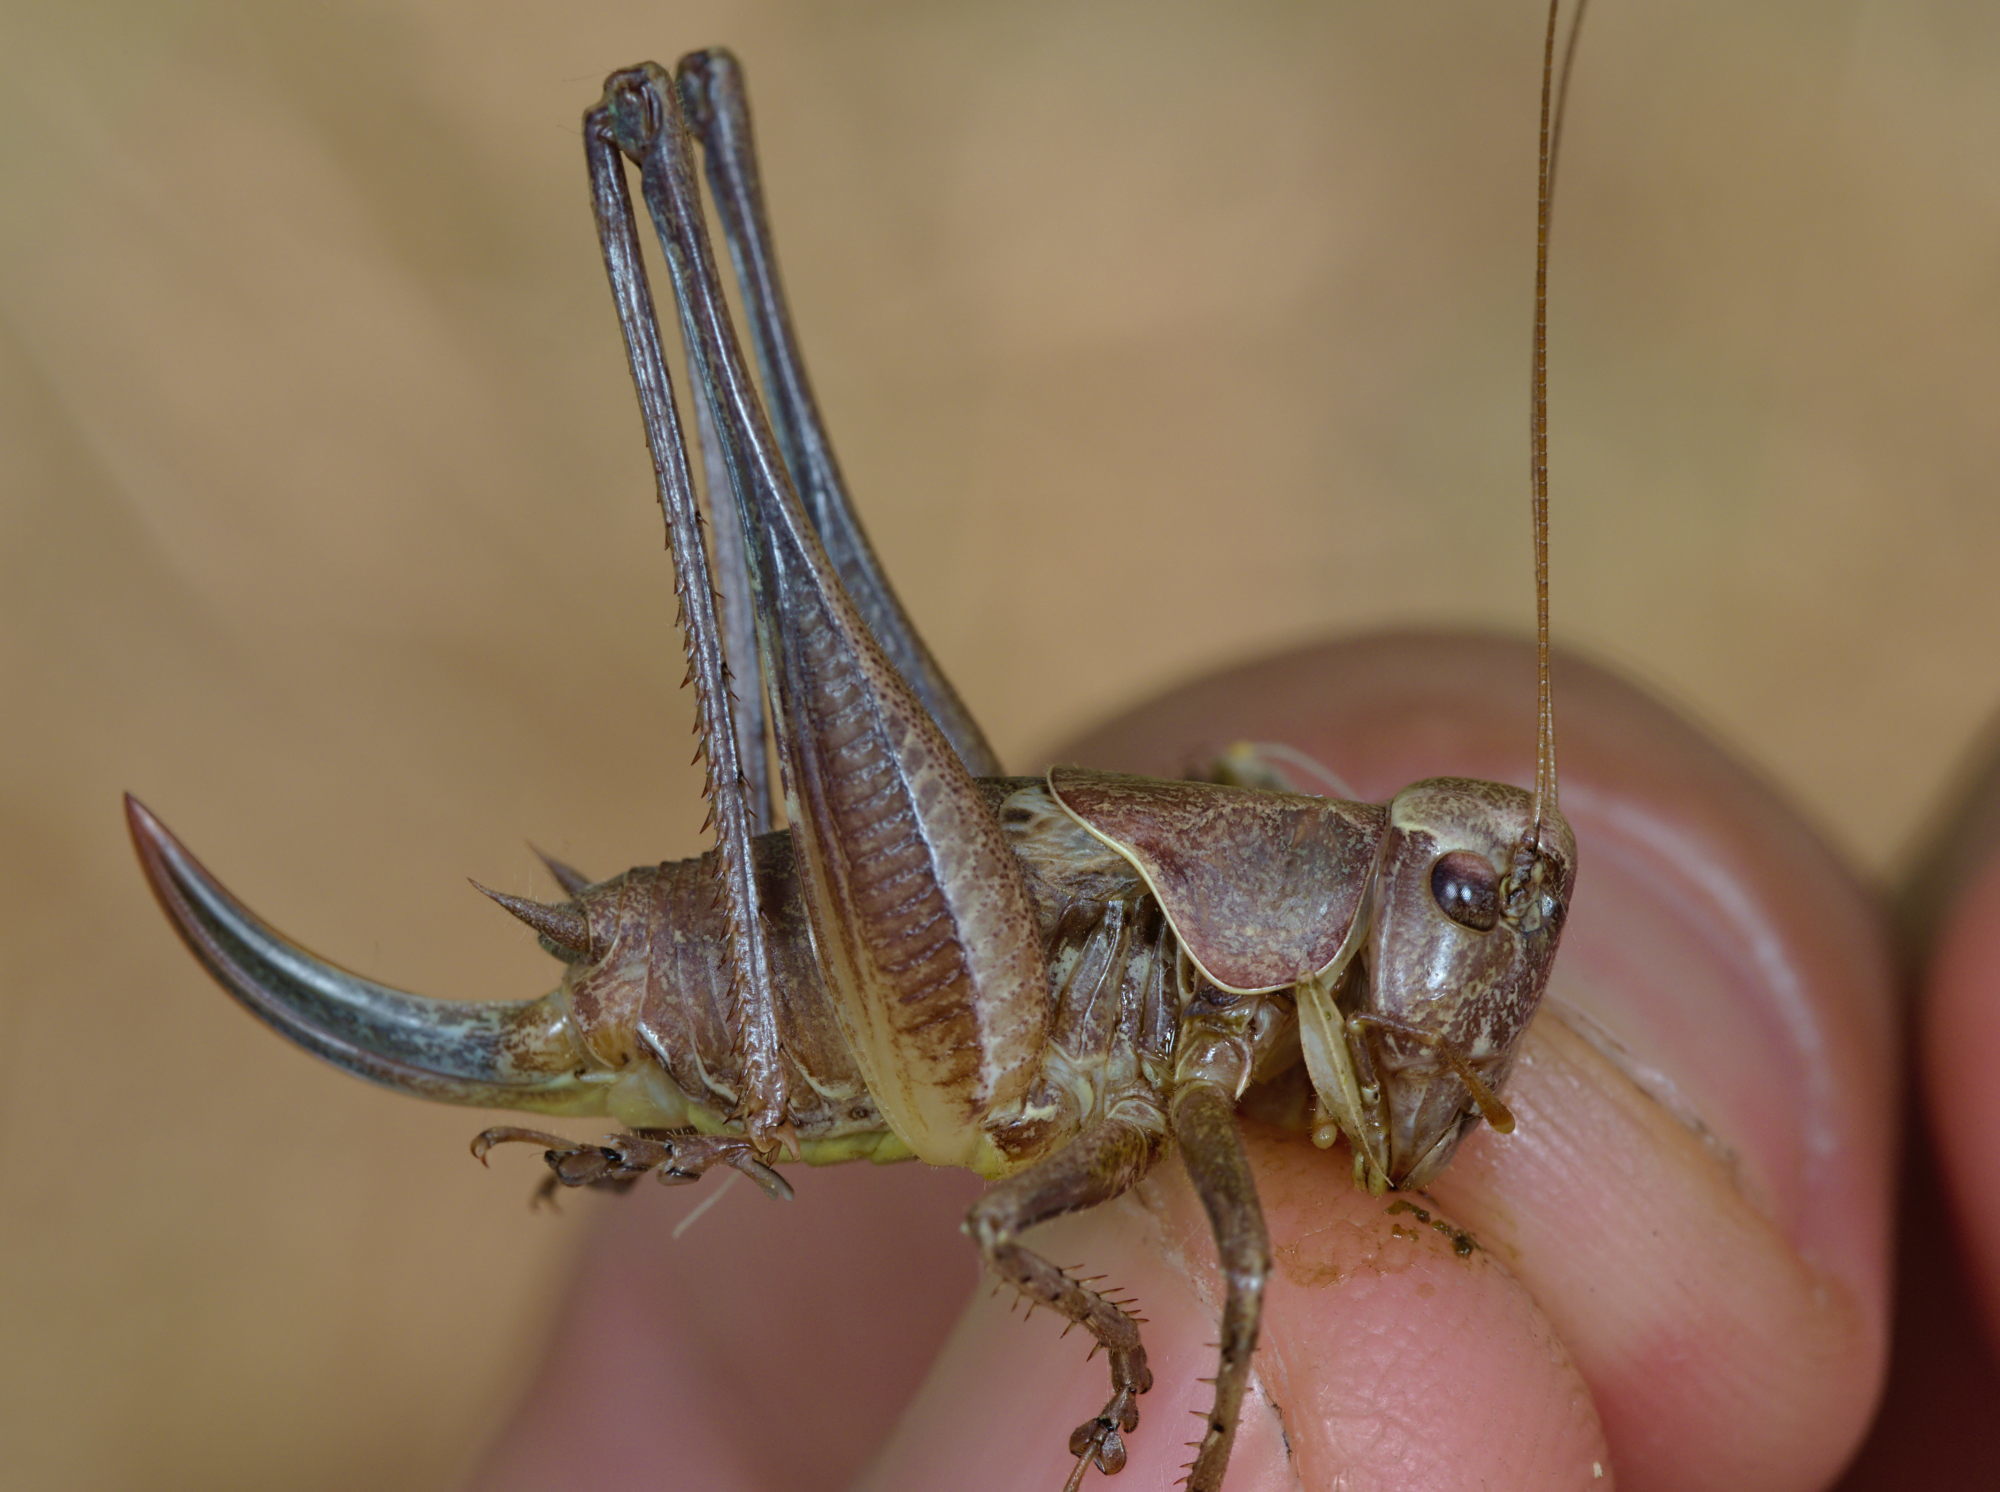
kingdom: Animalia
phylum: Arthropoda
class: Insecta
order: Orthoptera
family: Tettigoniidae
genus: Pholidoptera
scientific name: Pholidoptera griseoaptera
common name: Dark bush-cricket
